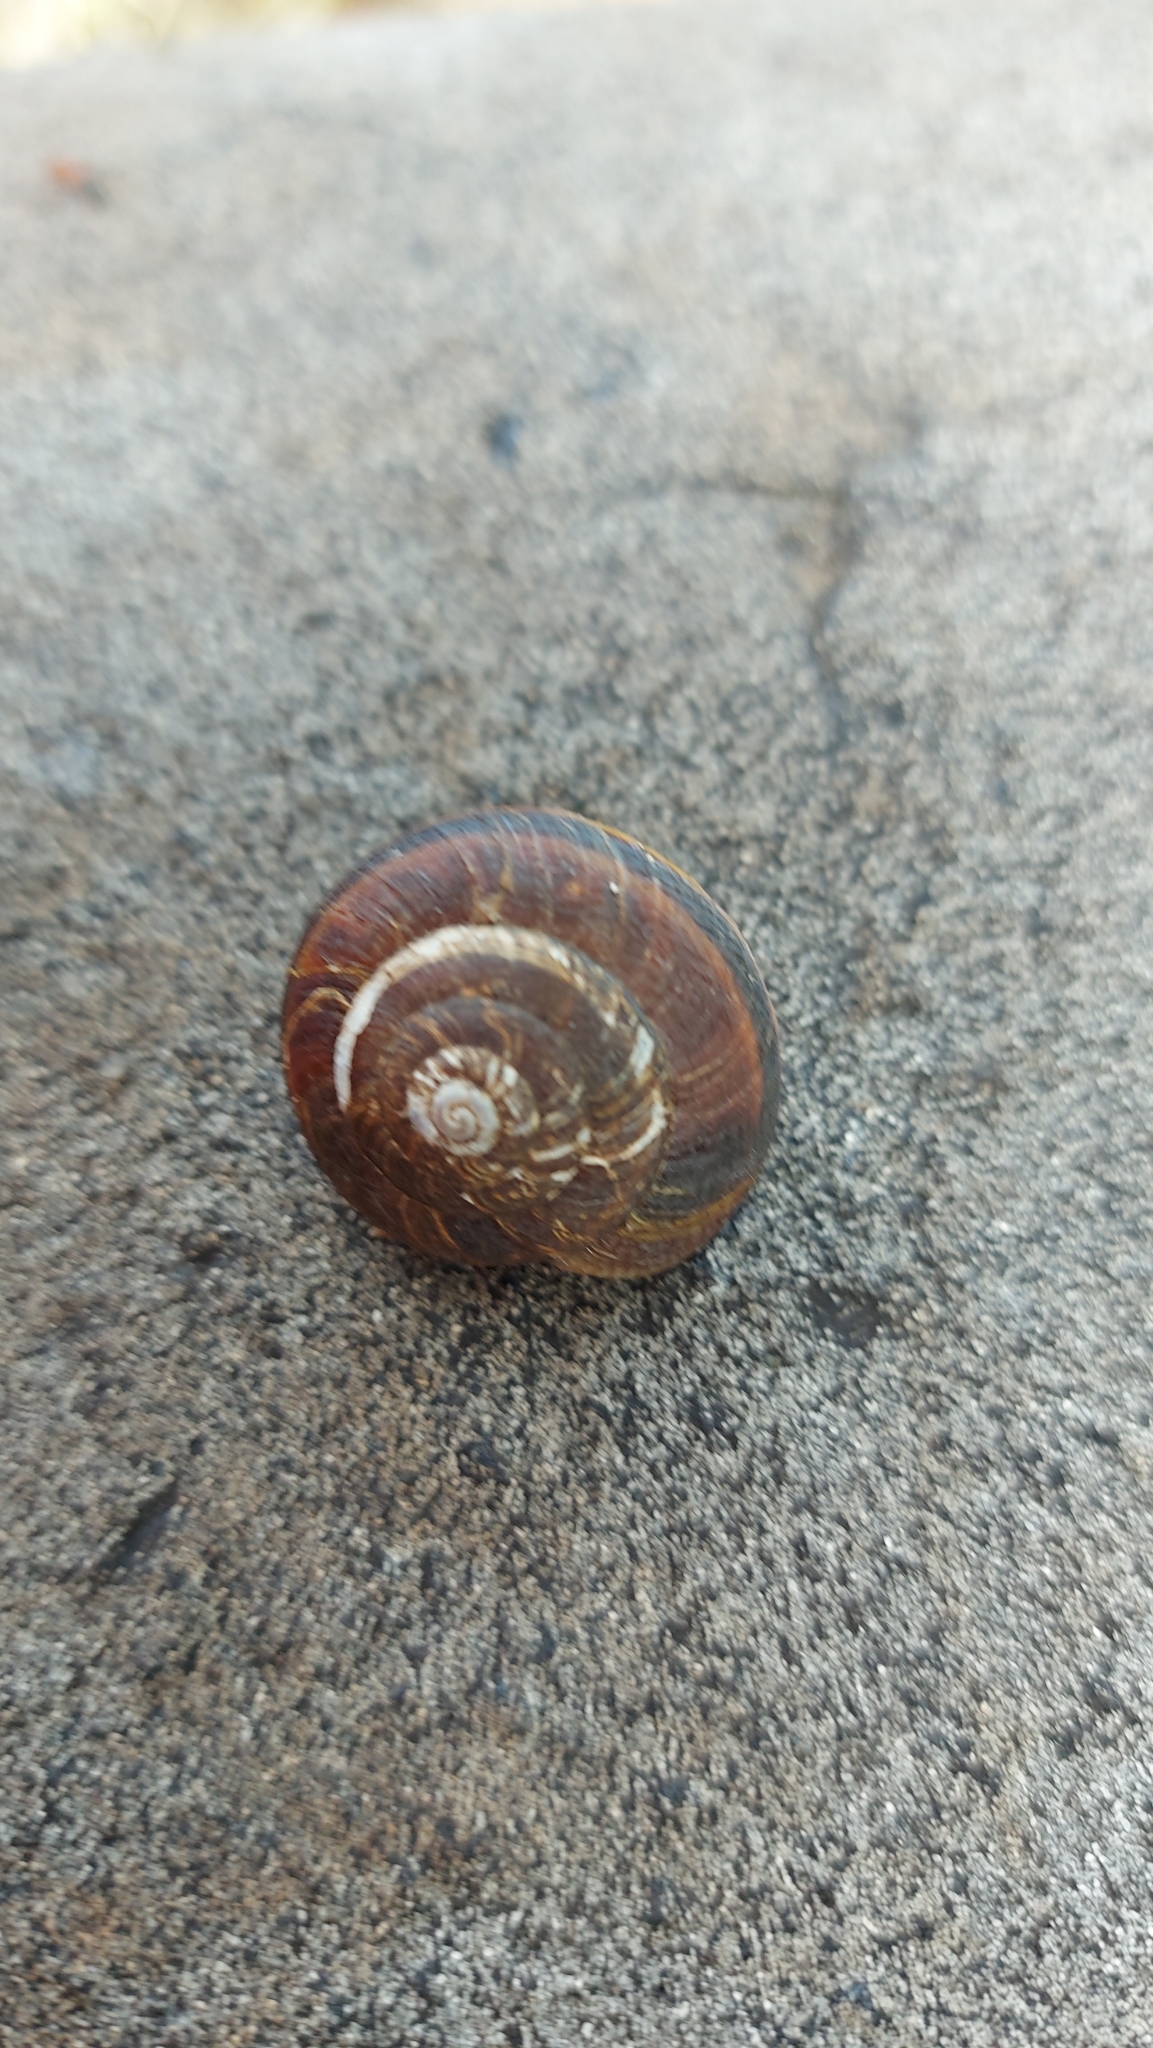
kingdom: Animalia
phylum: Mollusca
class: Gastropoda
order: Stylommatophora
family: Xanthonychidae
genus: Monadenia
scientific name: Monadenia fidelis
